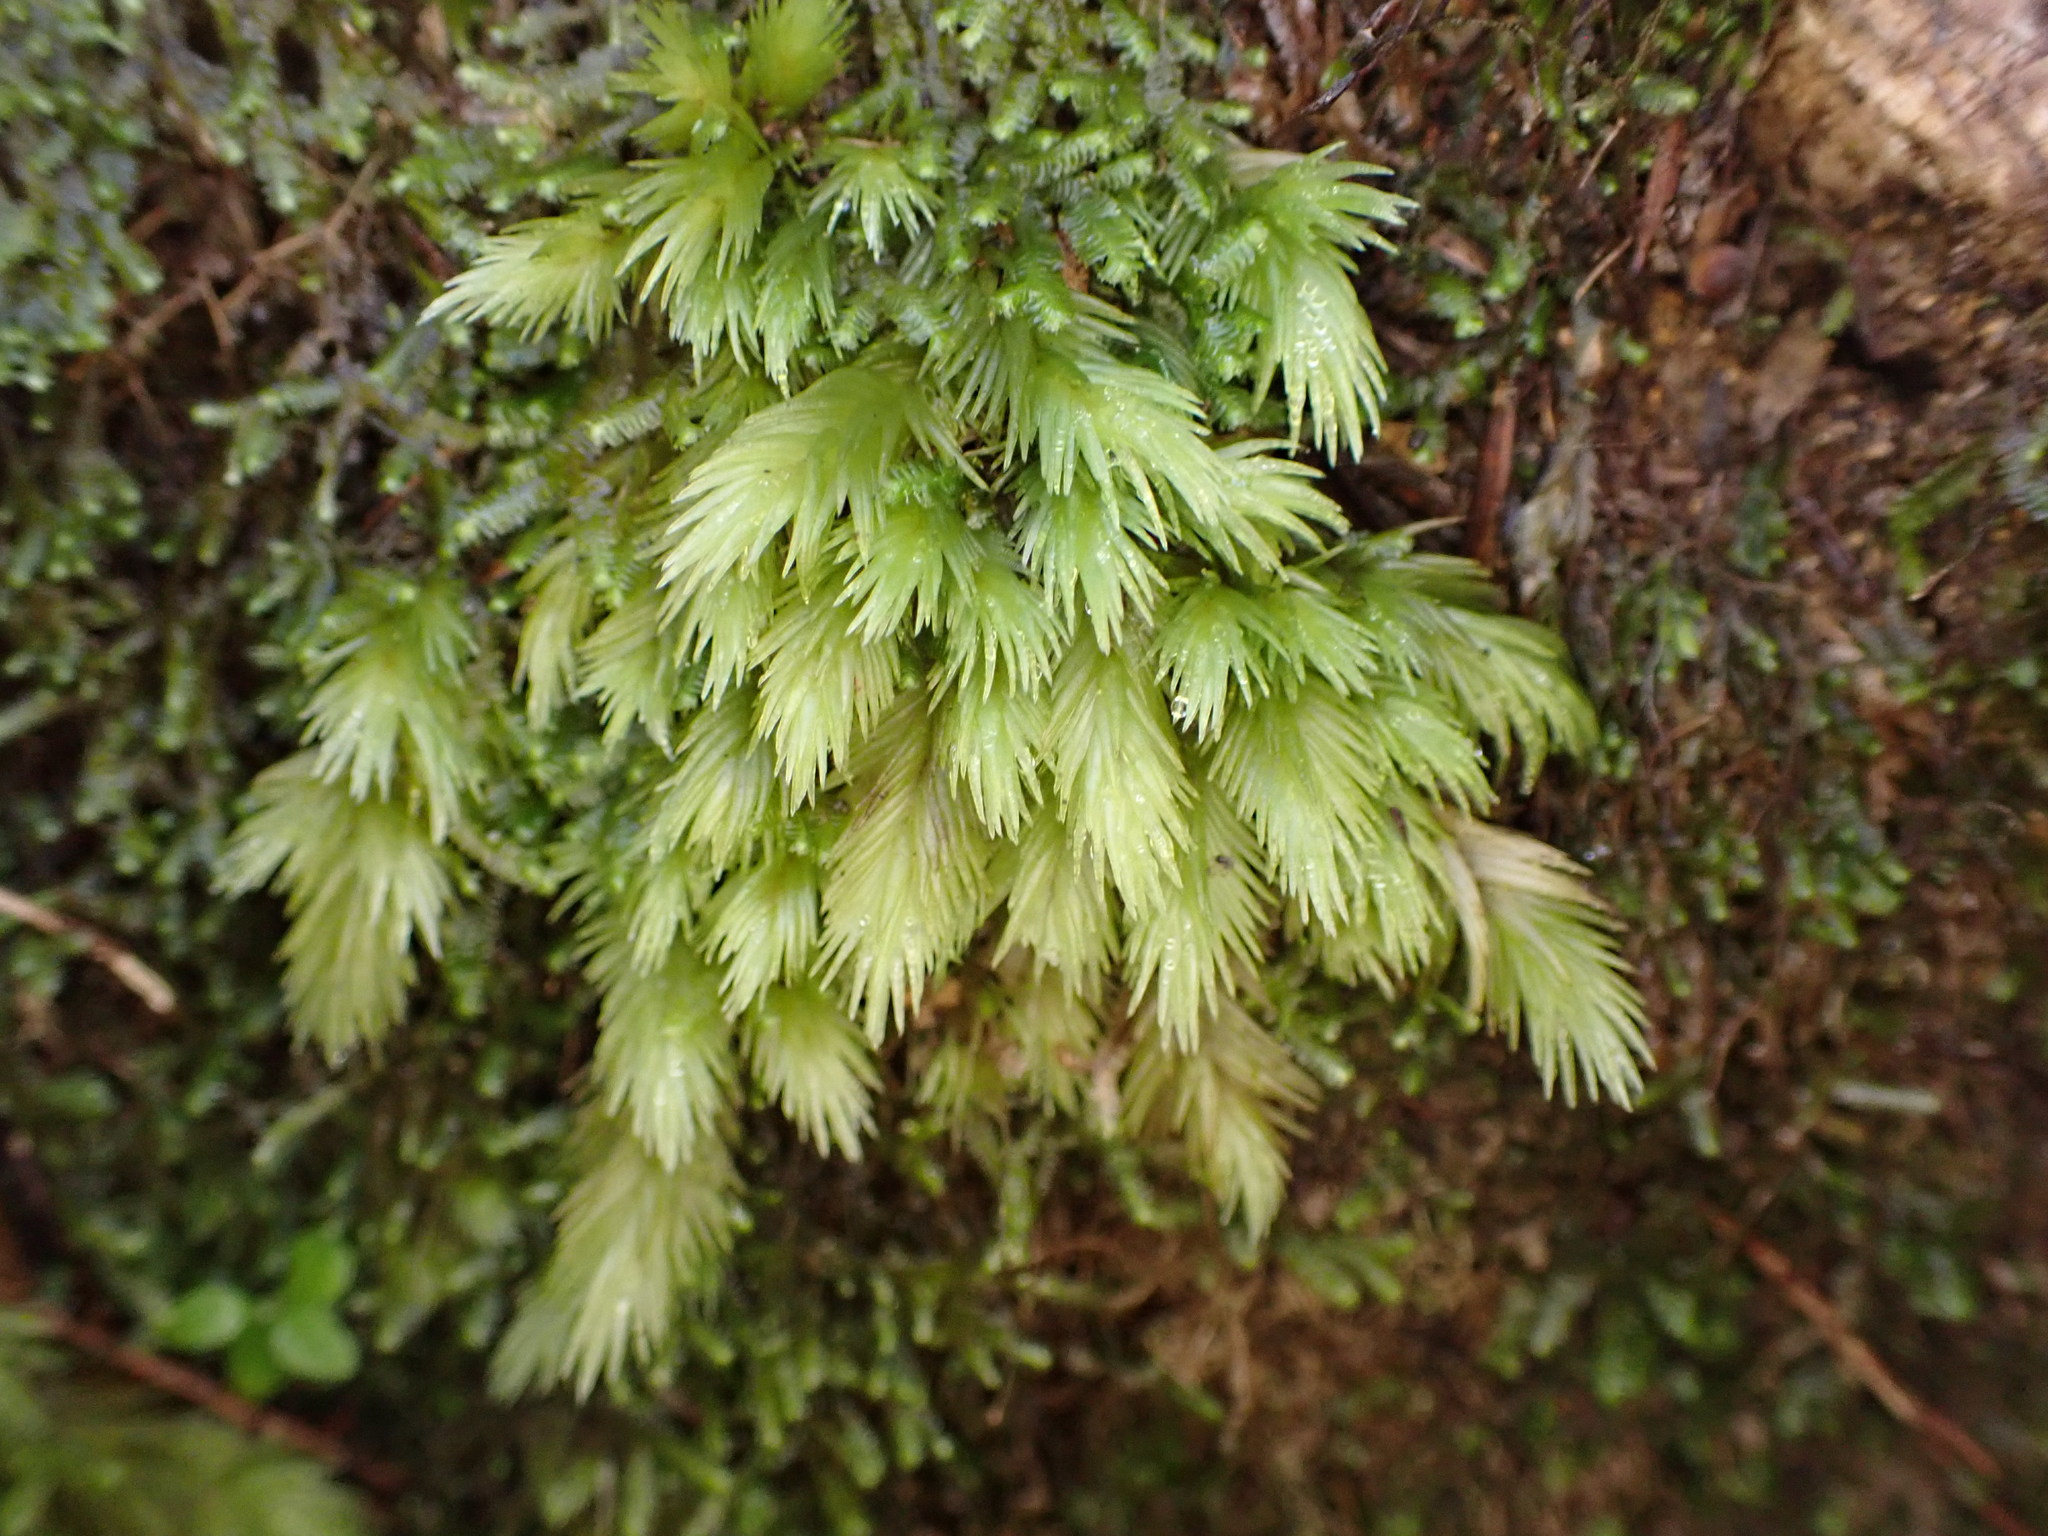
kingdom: Plantae
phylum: Bryophyta
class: Bryopsida
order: Dicranales
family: Leucobryaceae
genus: Leucobryum
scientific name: Leucobryum javense
